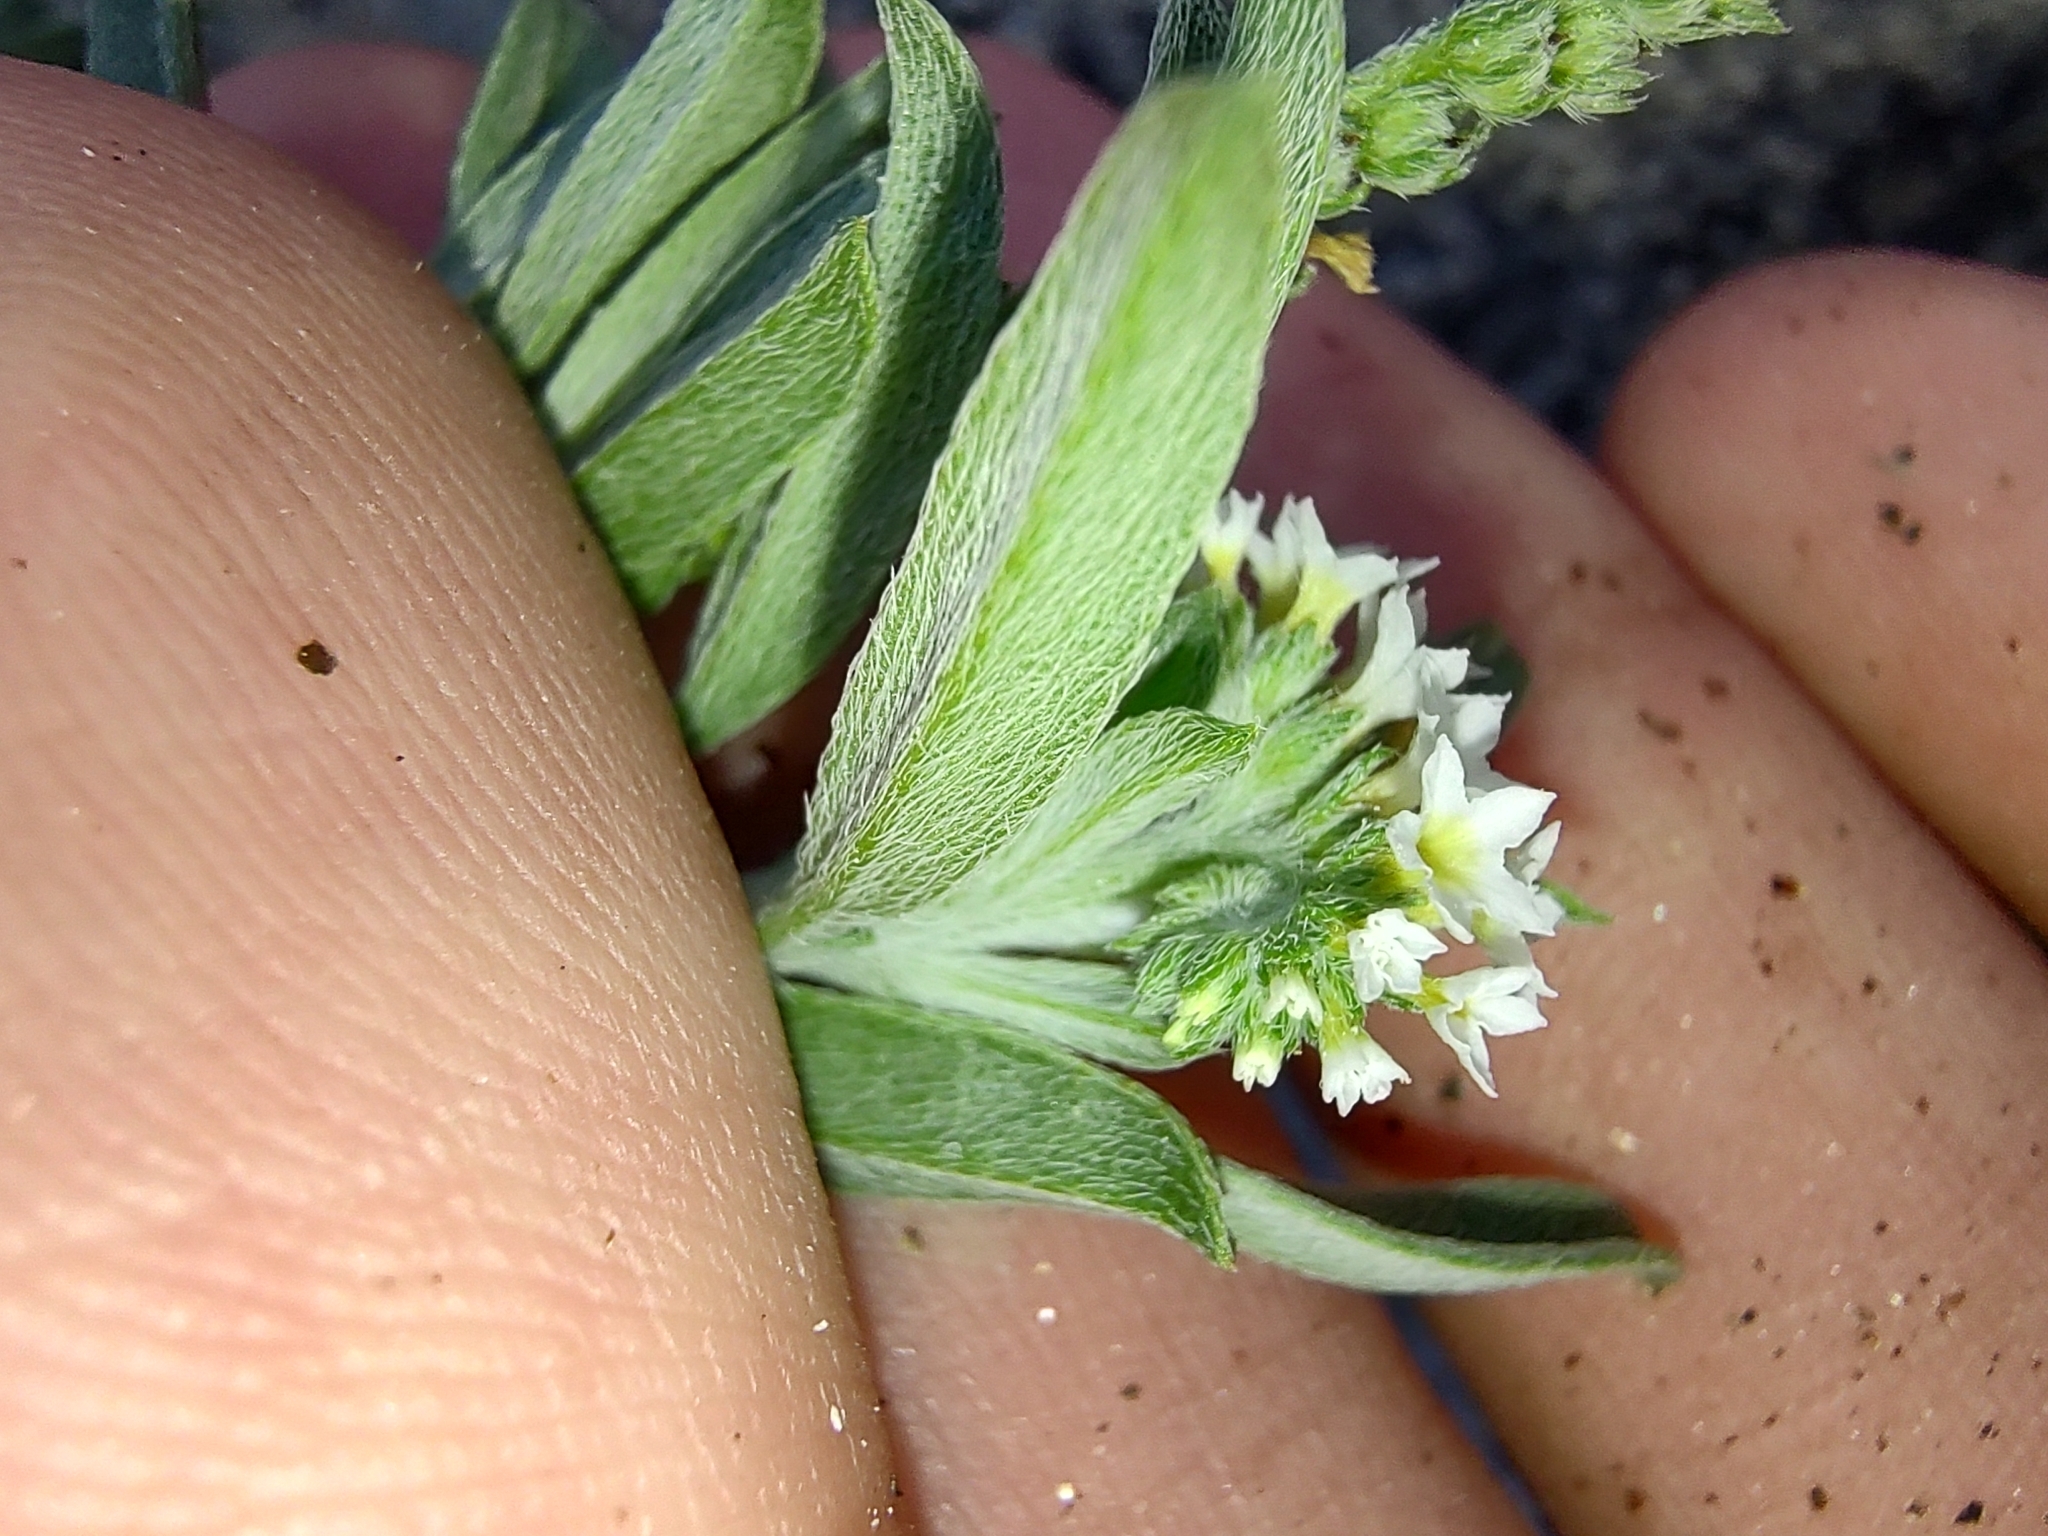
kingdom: Plantae
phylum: Tracheophyta
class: Magnoliopsida
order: Boraginales
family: Heliotropiaceae
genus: Euploca
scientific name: Euploca procumbens
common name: Fourspike heliotrope
